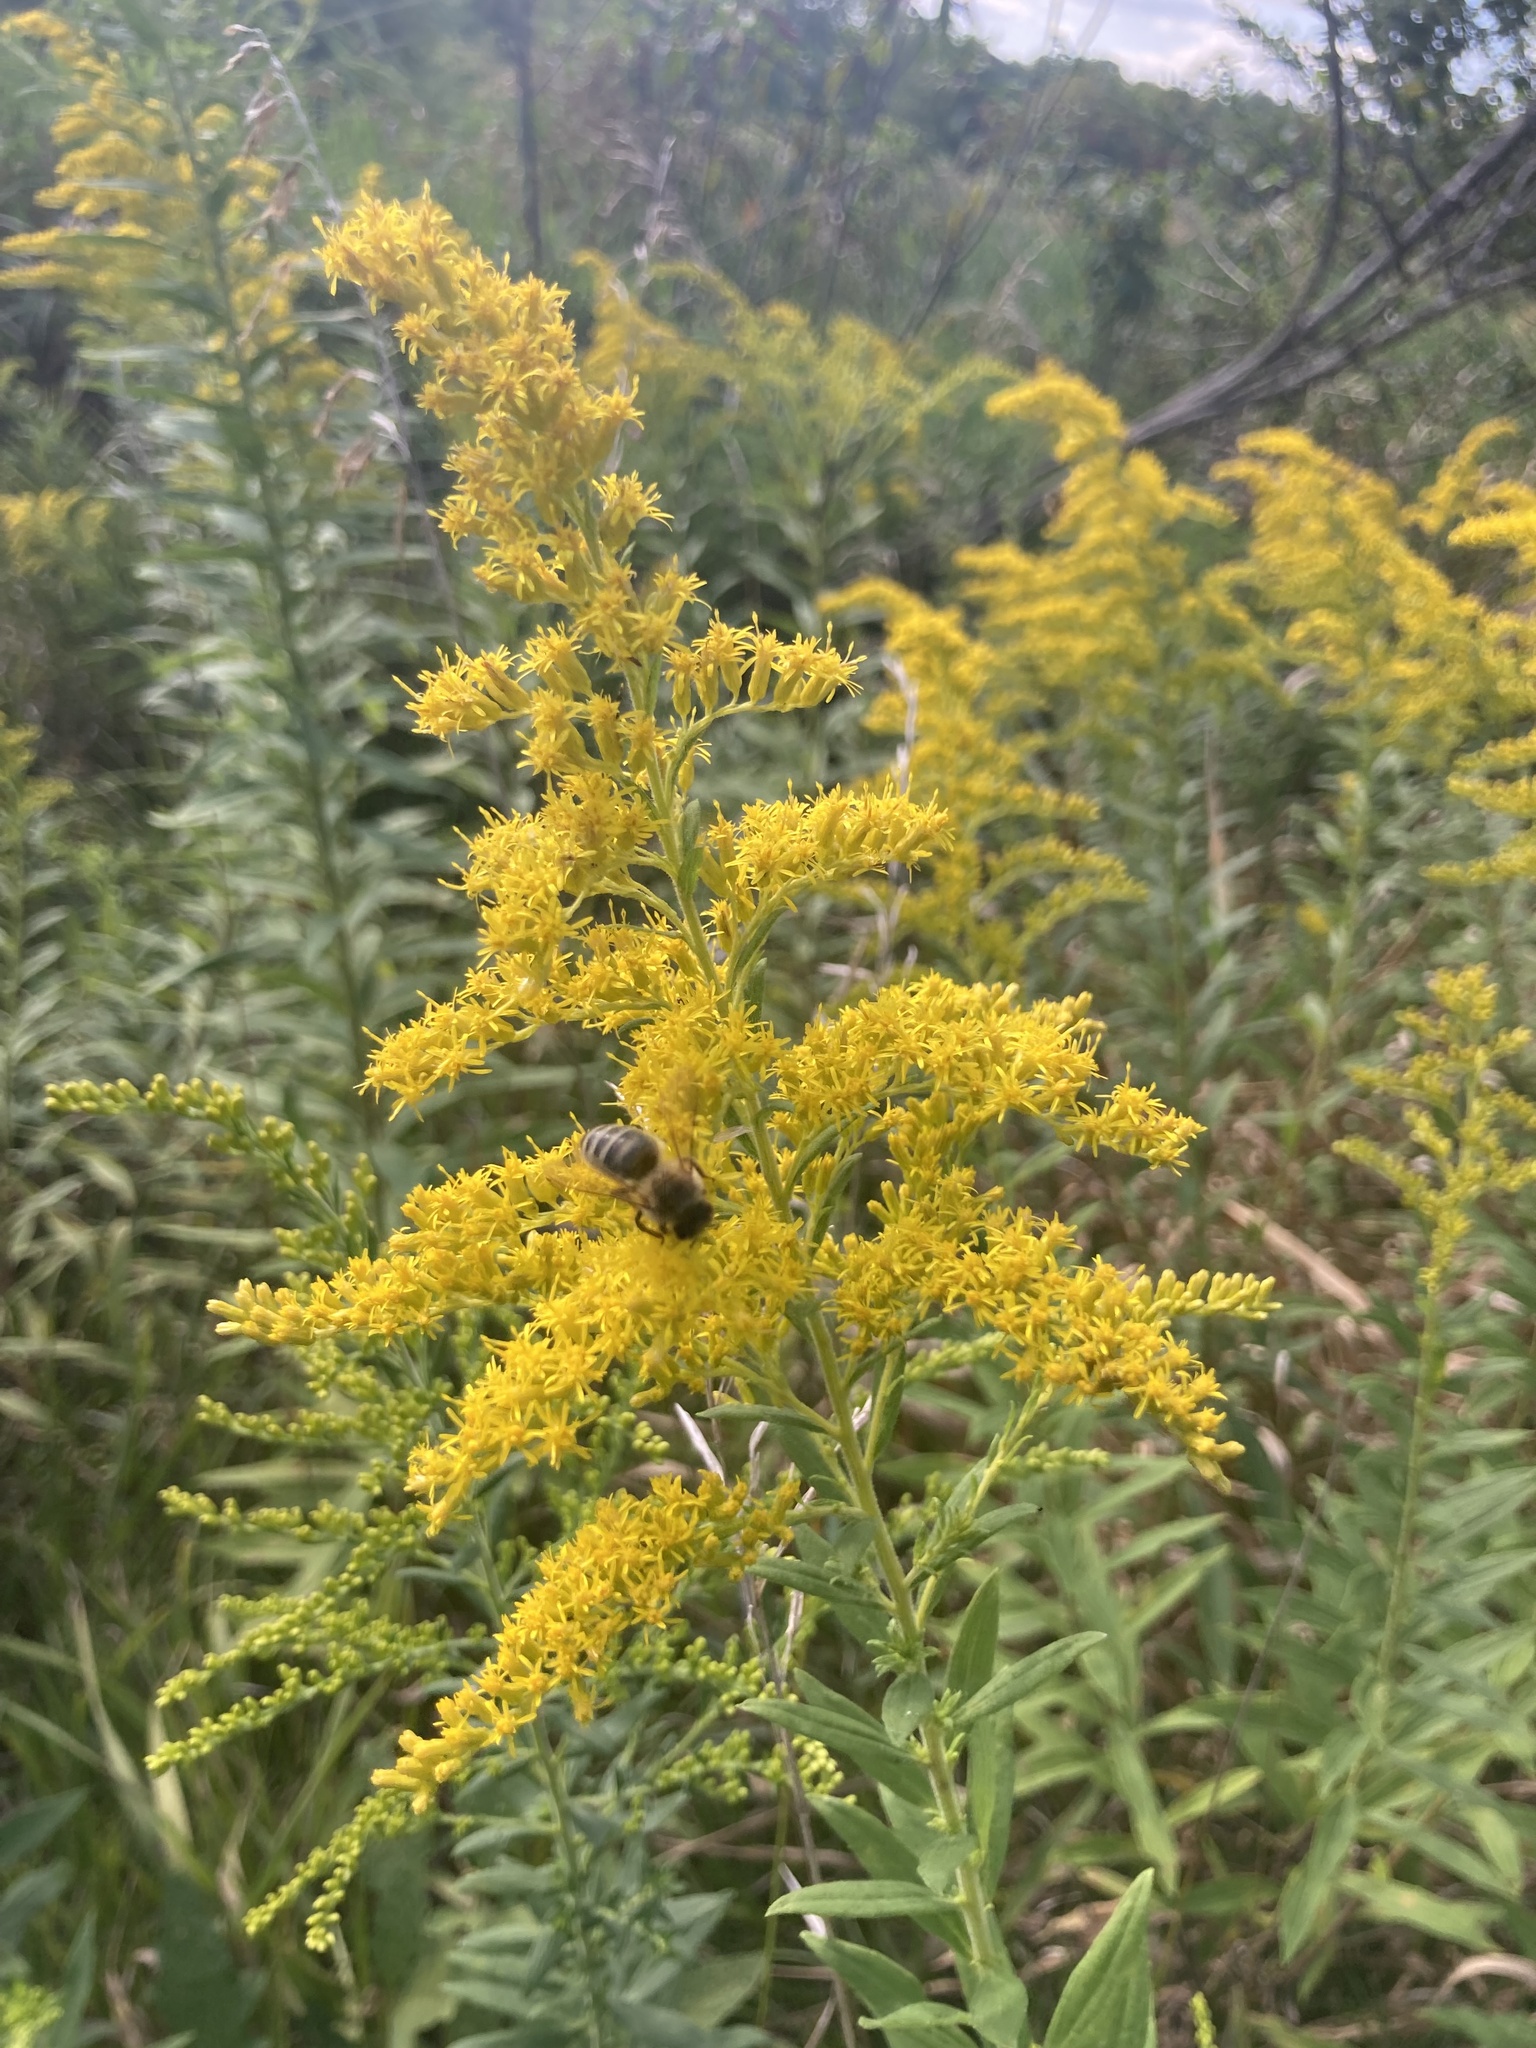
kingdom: Animalia
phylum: Arthropoda
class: Insecta
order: Hymenoptera
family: Apidae
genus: Apis
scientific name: Apis mellifera
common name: Honey bee
